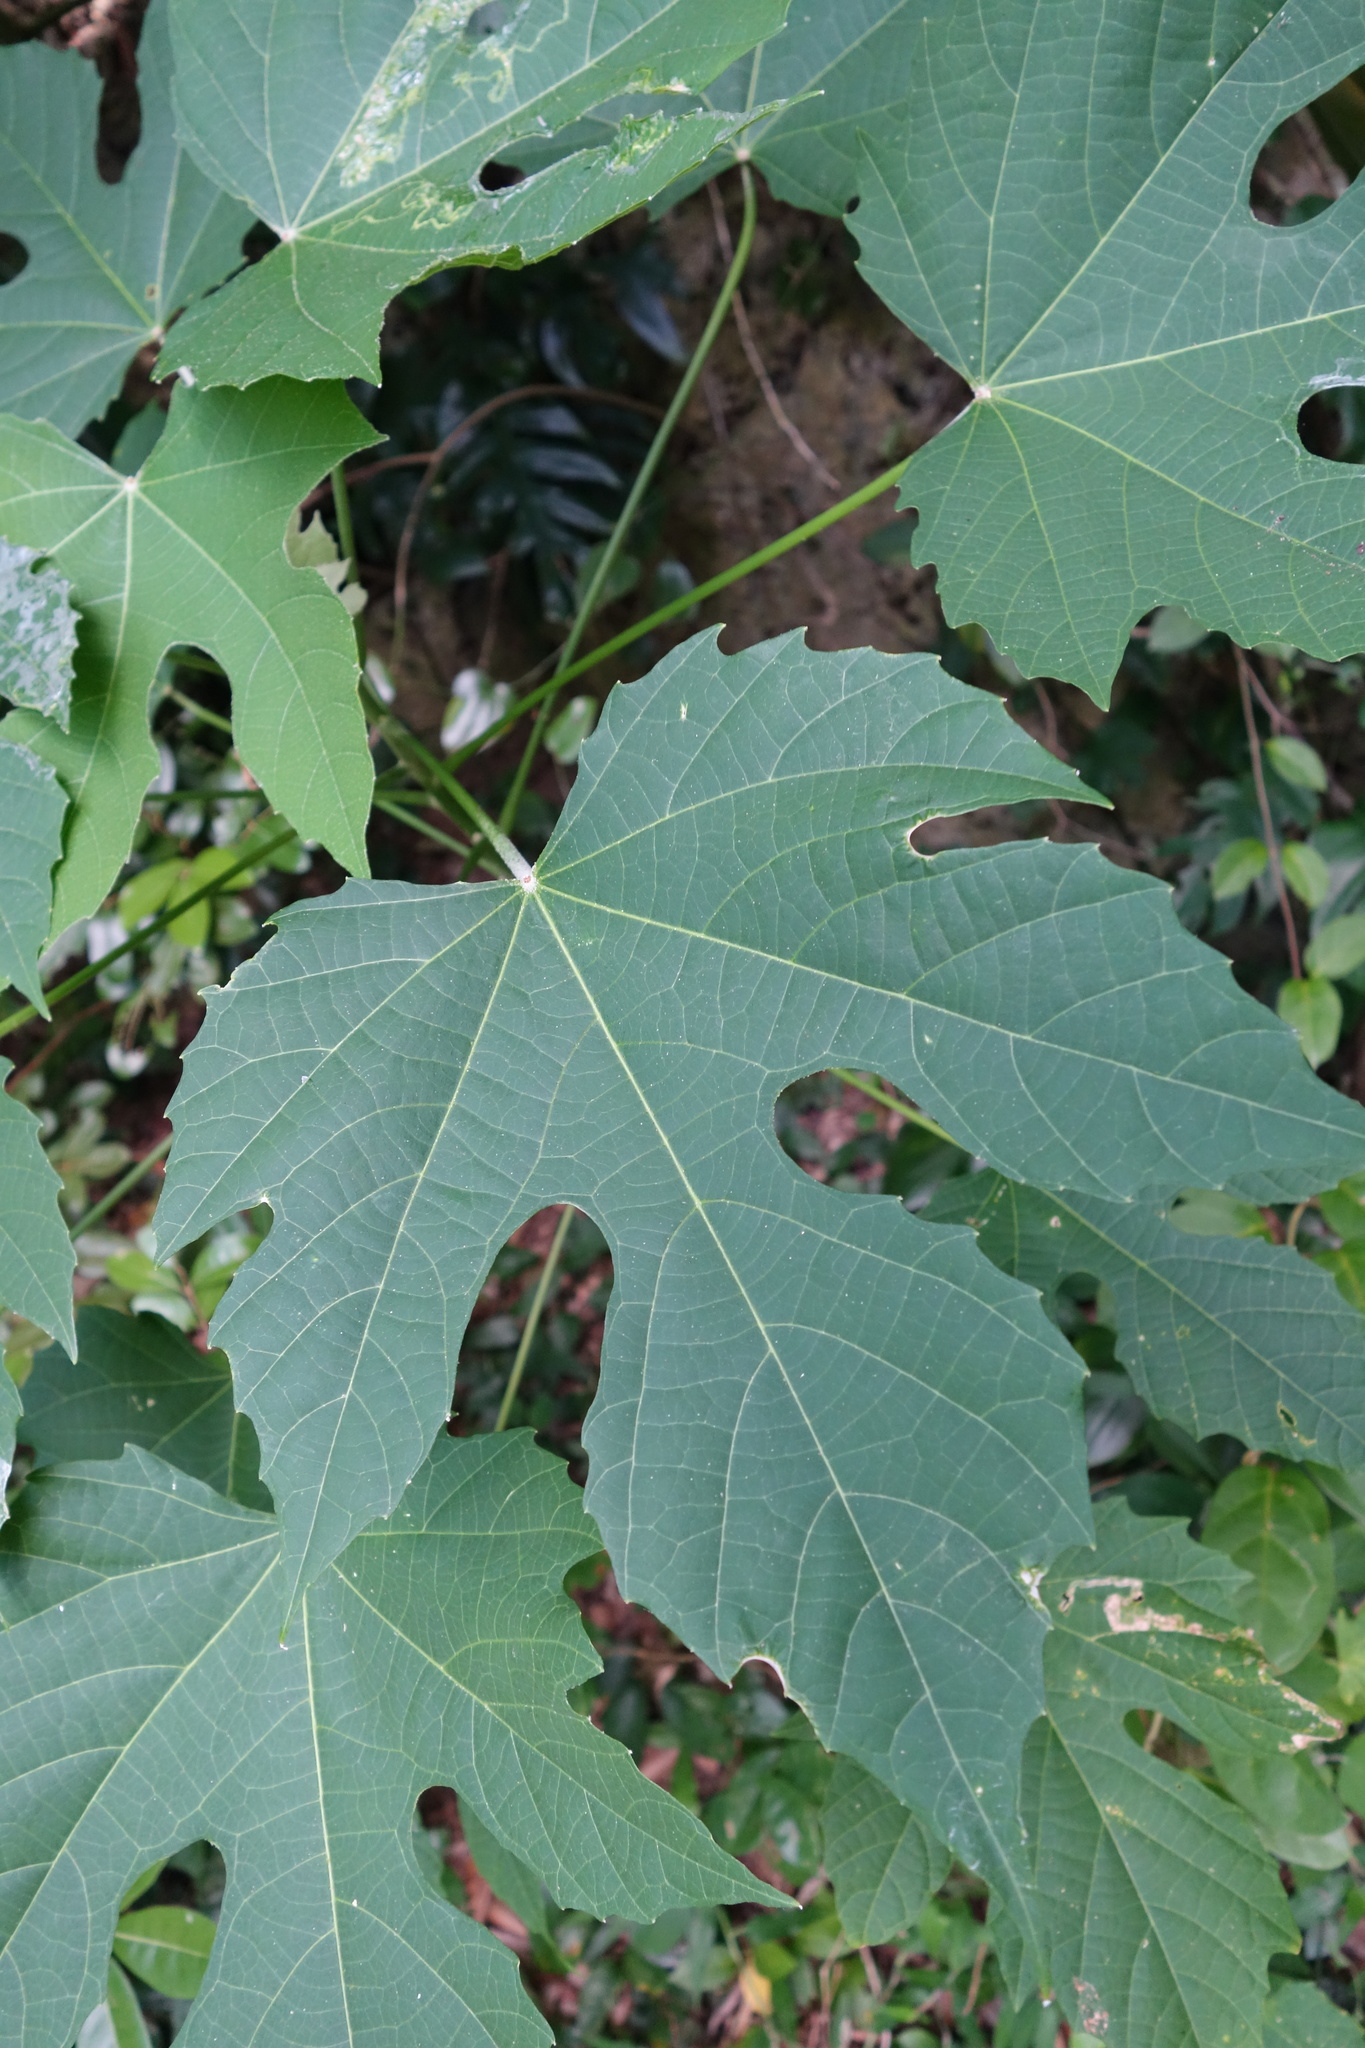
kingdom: Plantae
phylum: Tracheophyta
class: Magnoliopsida
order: Malpighiales
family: Euphorbiaceae
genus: Melanolepis
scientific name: Melanolepis multiglandulosa
